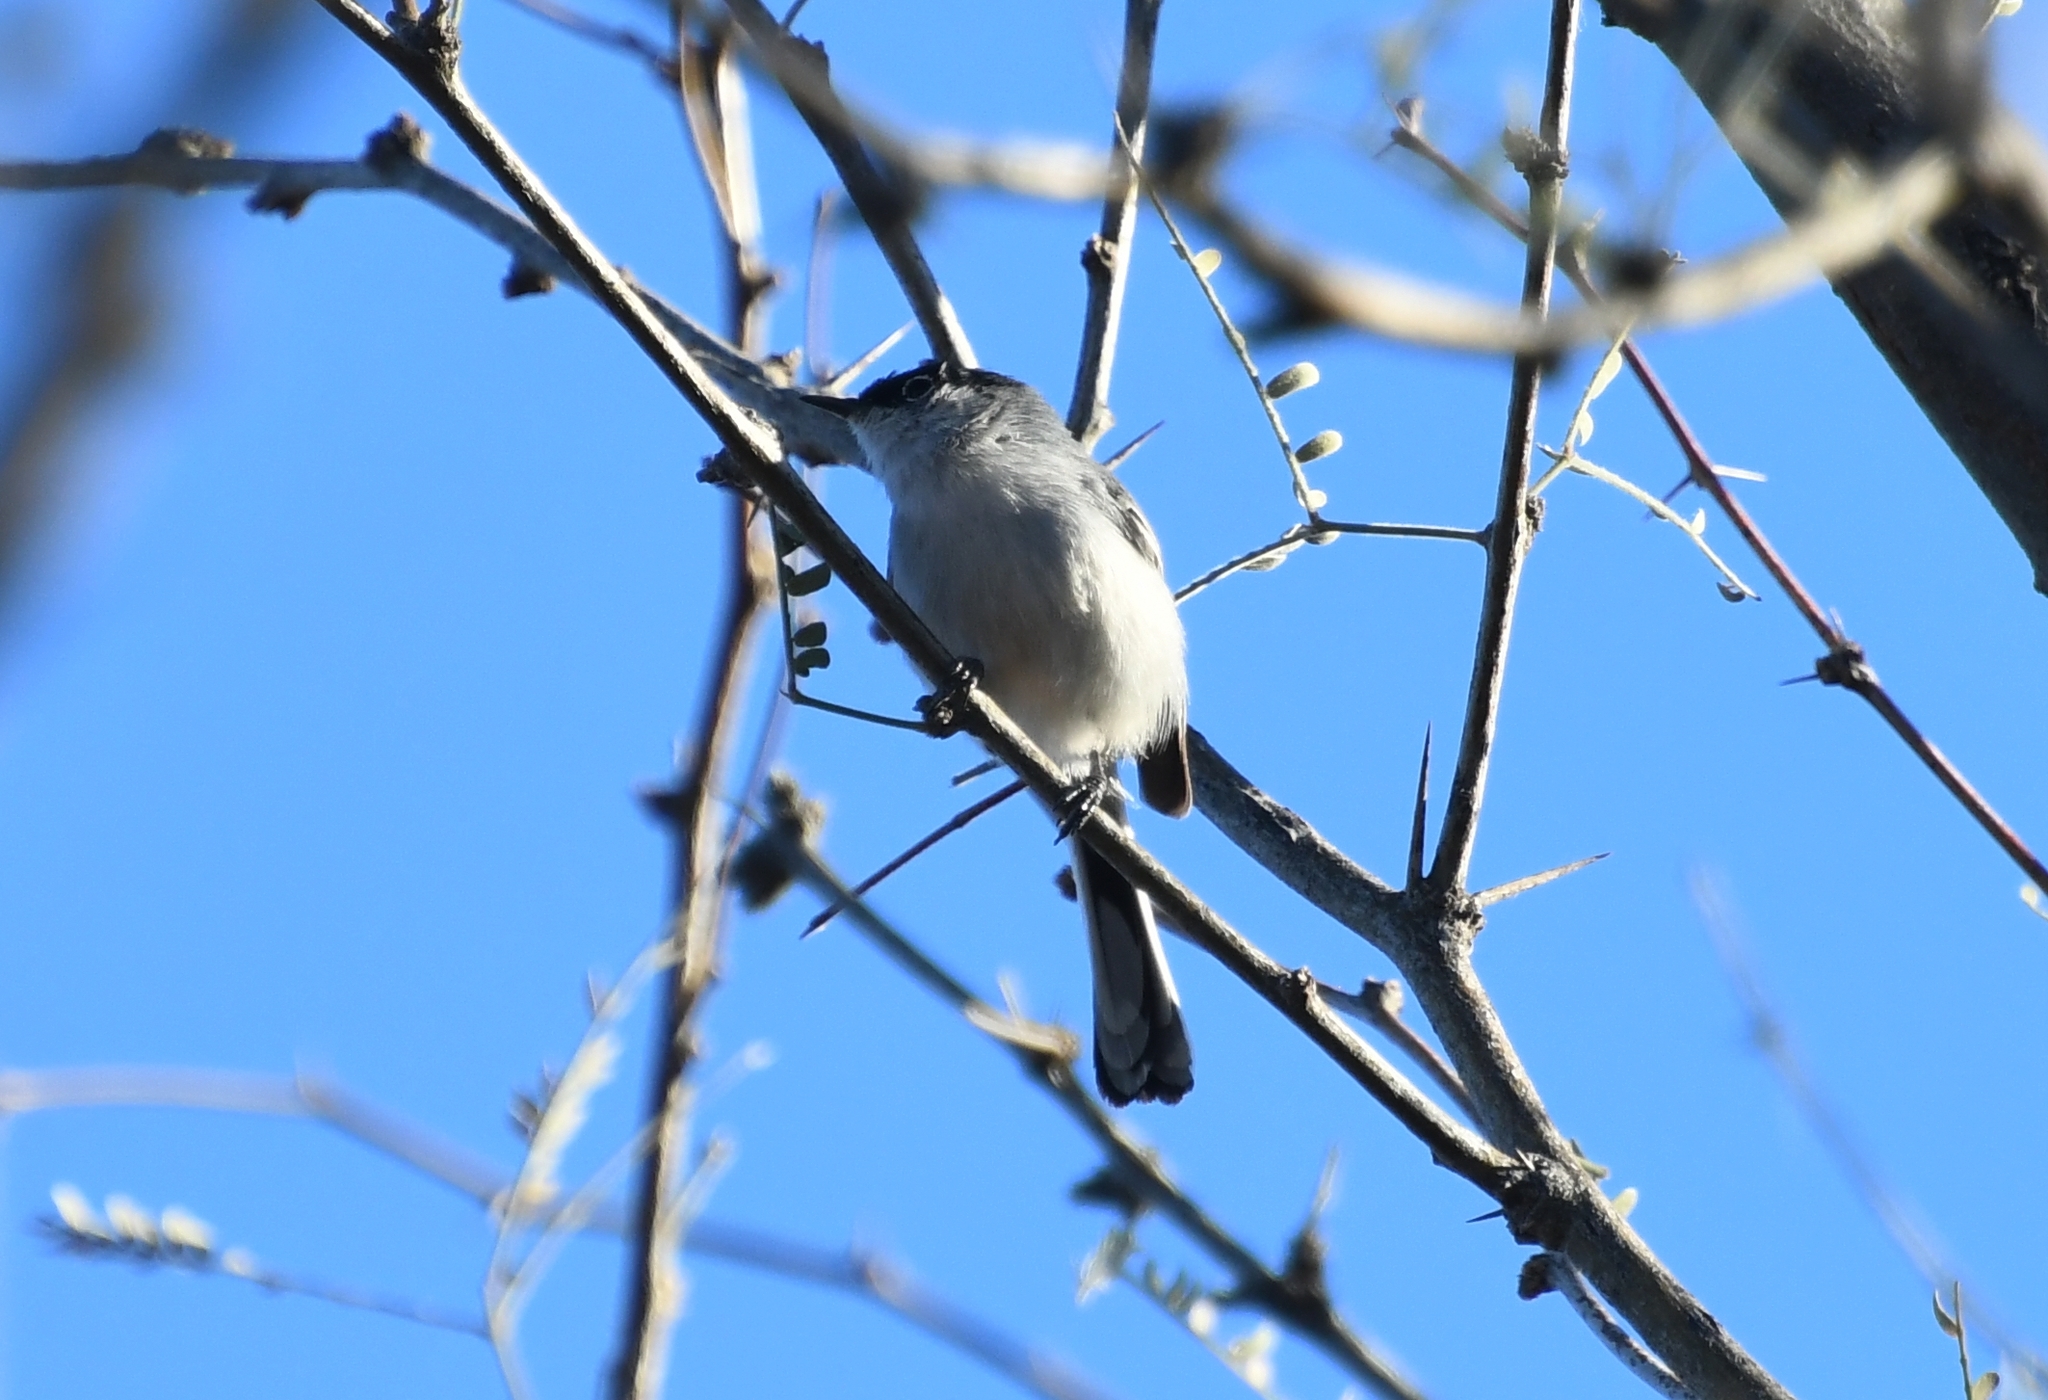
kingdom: Animalia
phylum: Chordata
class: Aves
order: Passeriformes
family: Polioptilidae
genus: Polioptila
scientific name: Polioptila melanura
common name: Black-tailed gnatcatcher
